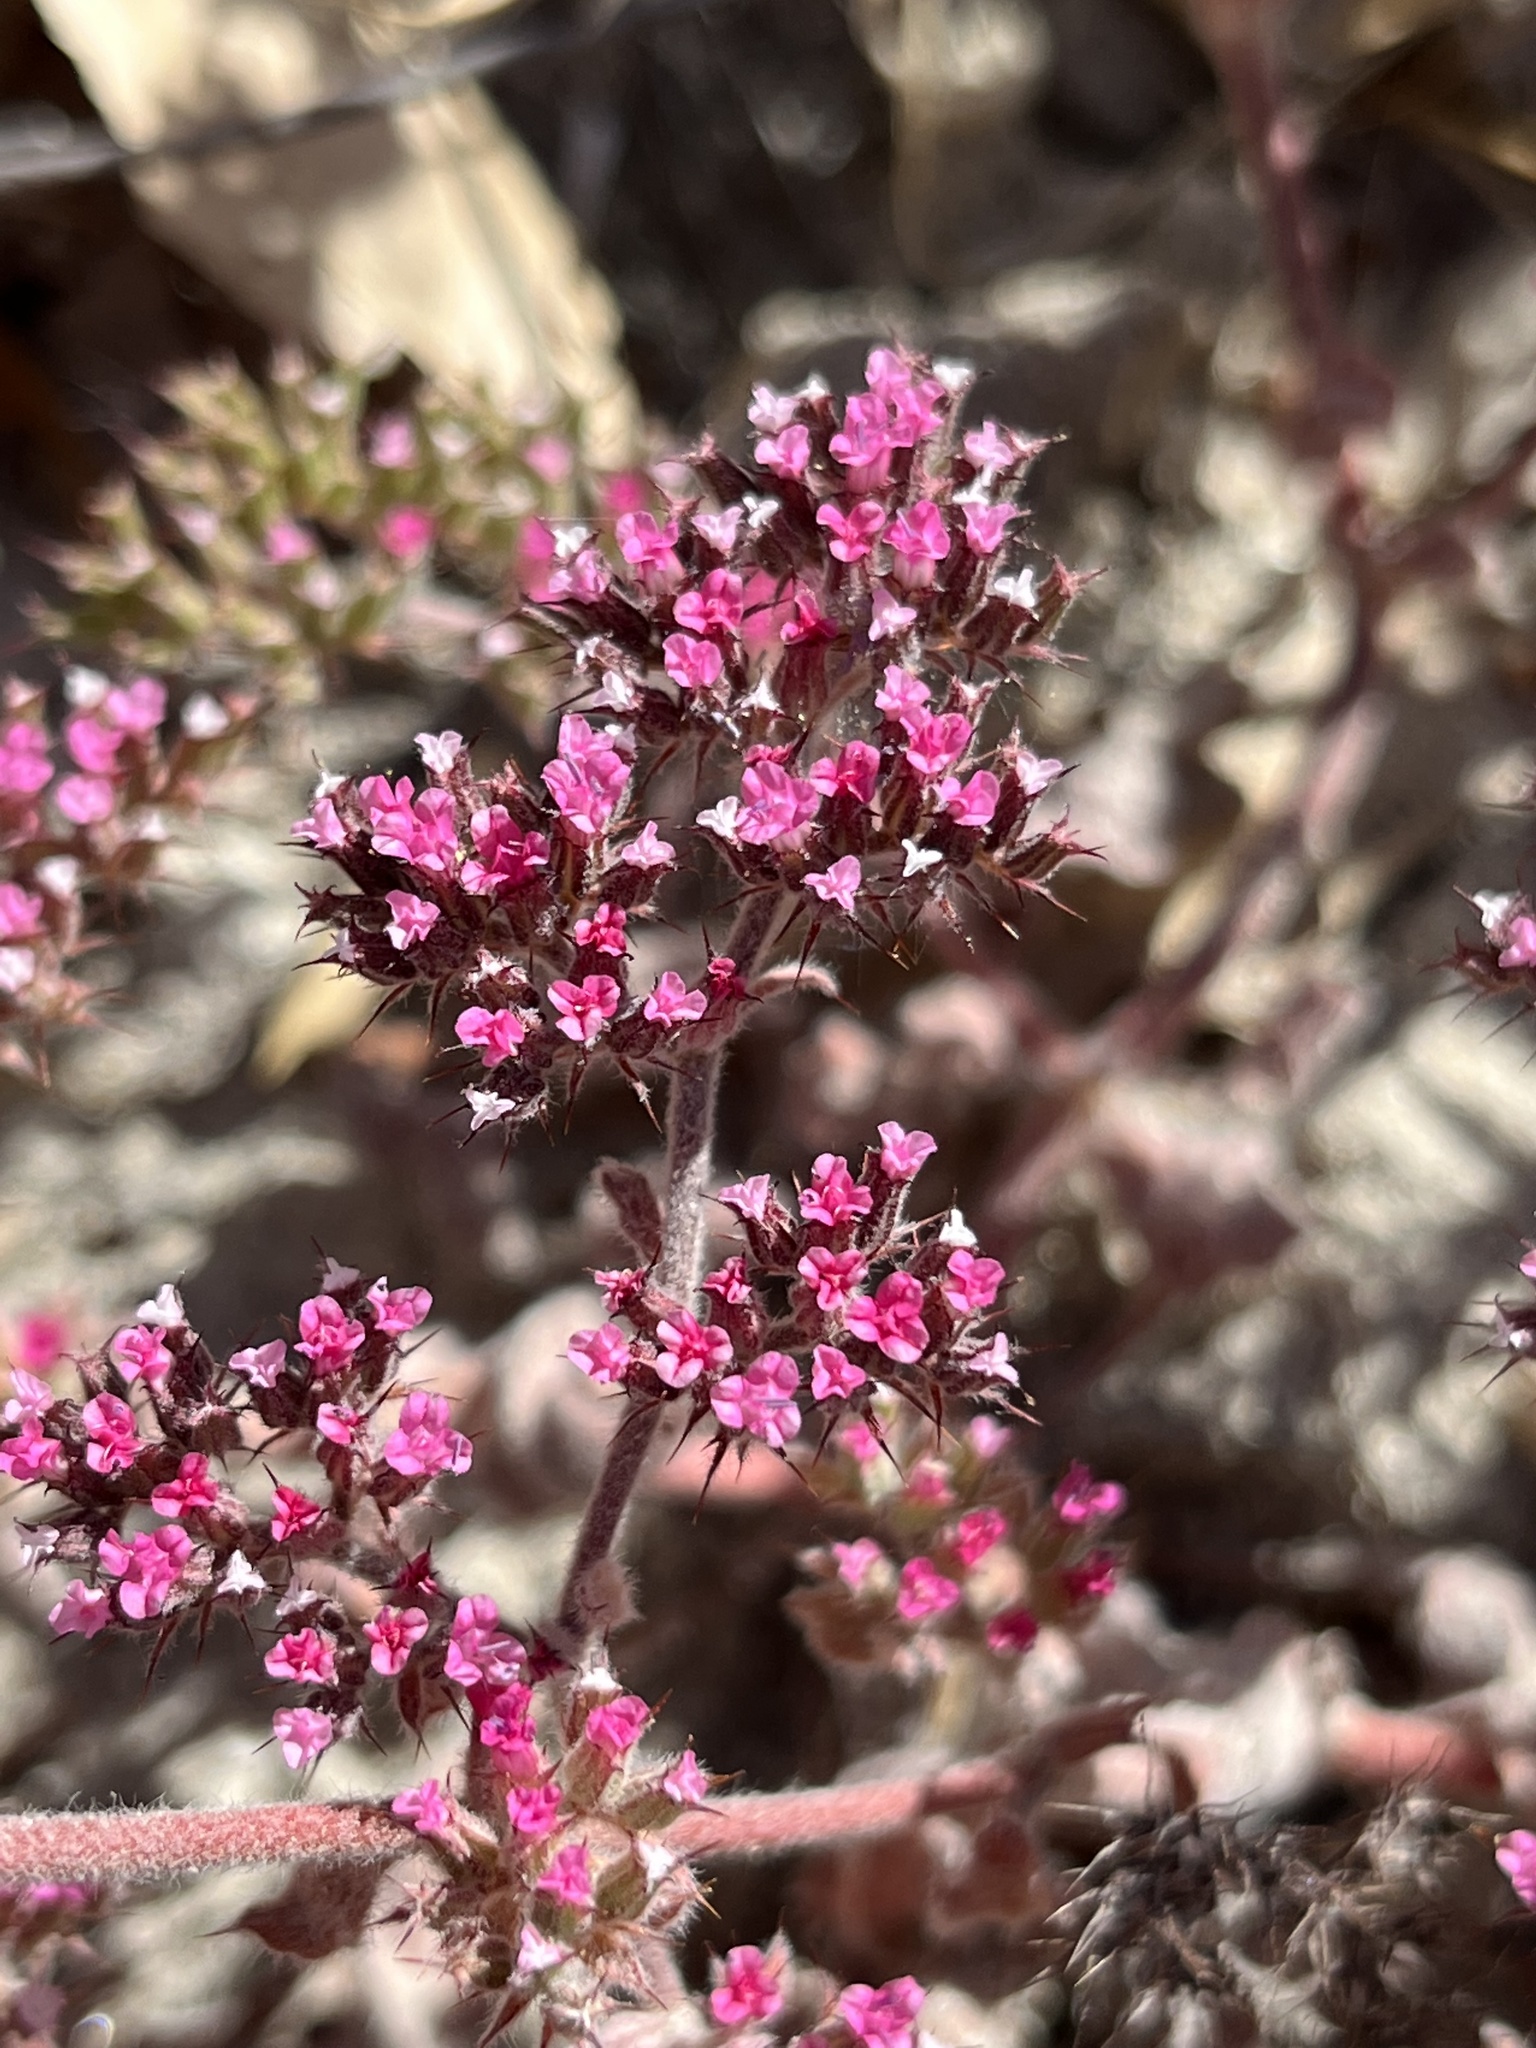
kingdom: Plantae
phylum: Tracheophyta
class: Magnoliopsida
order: Caryophyllales
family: Polygonaceae
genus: Chorizanthe
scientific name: Chorizanthe obovata
